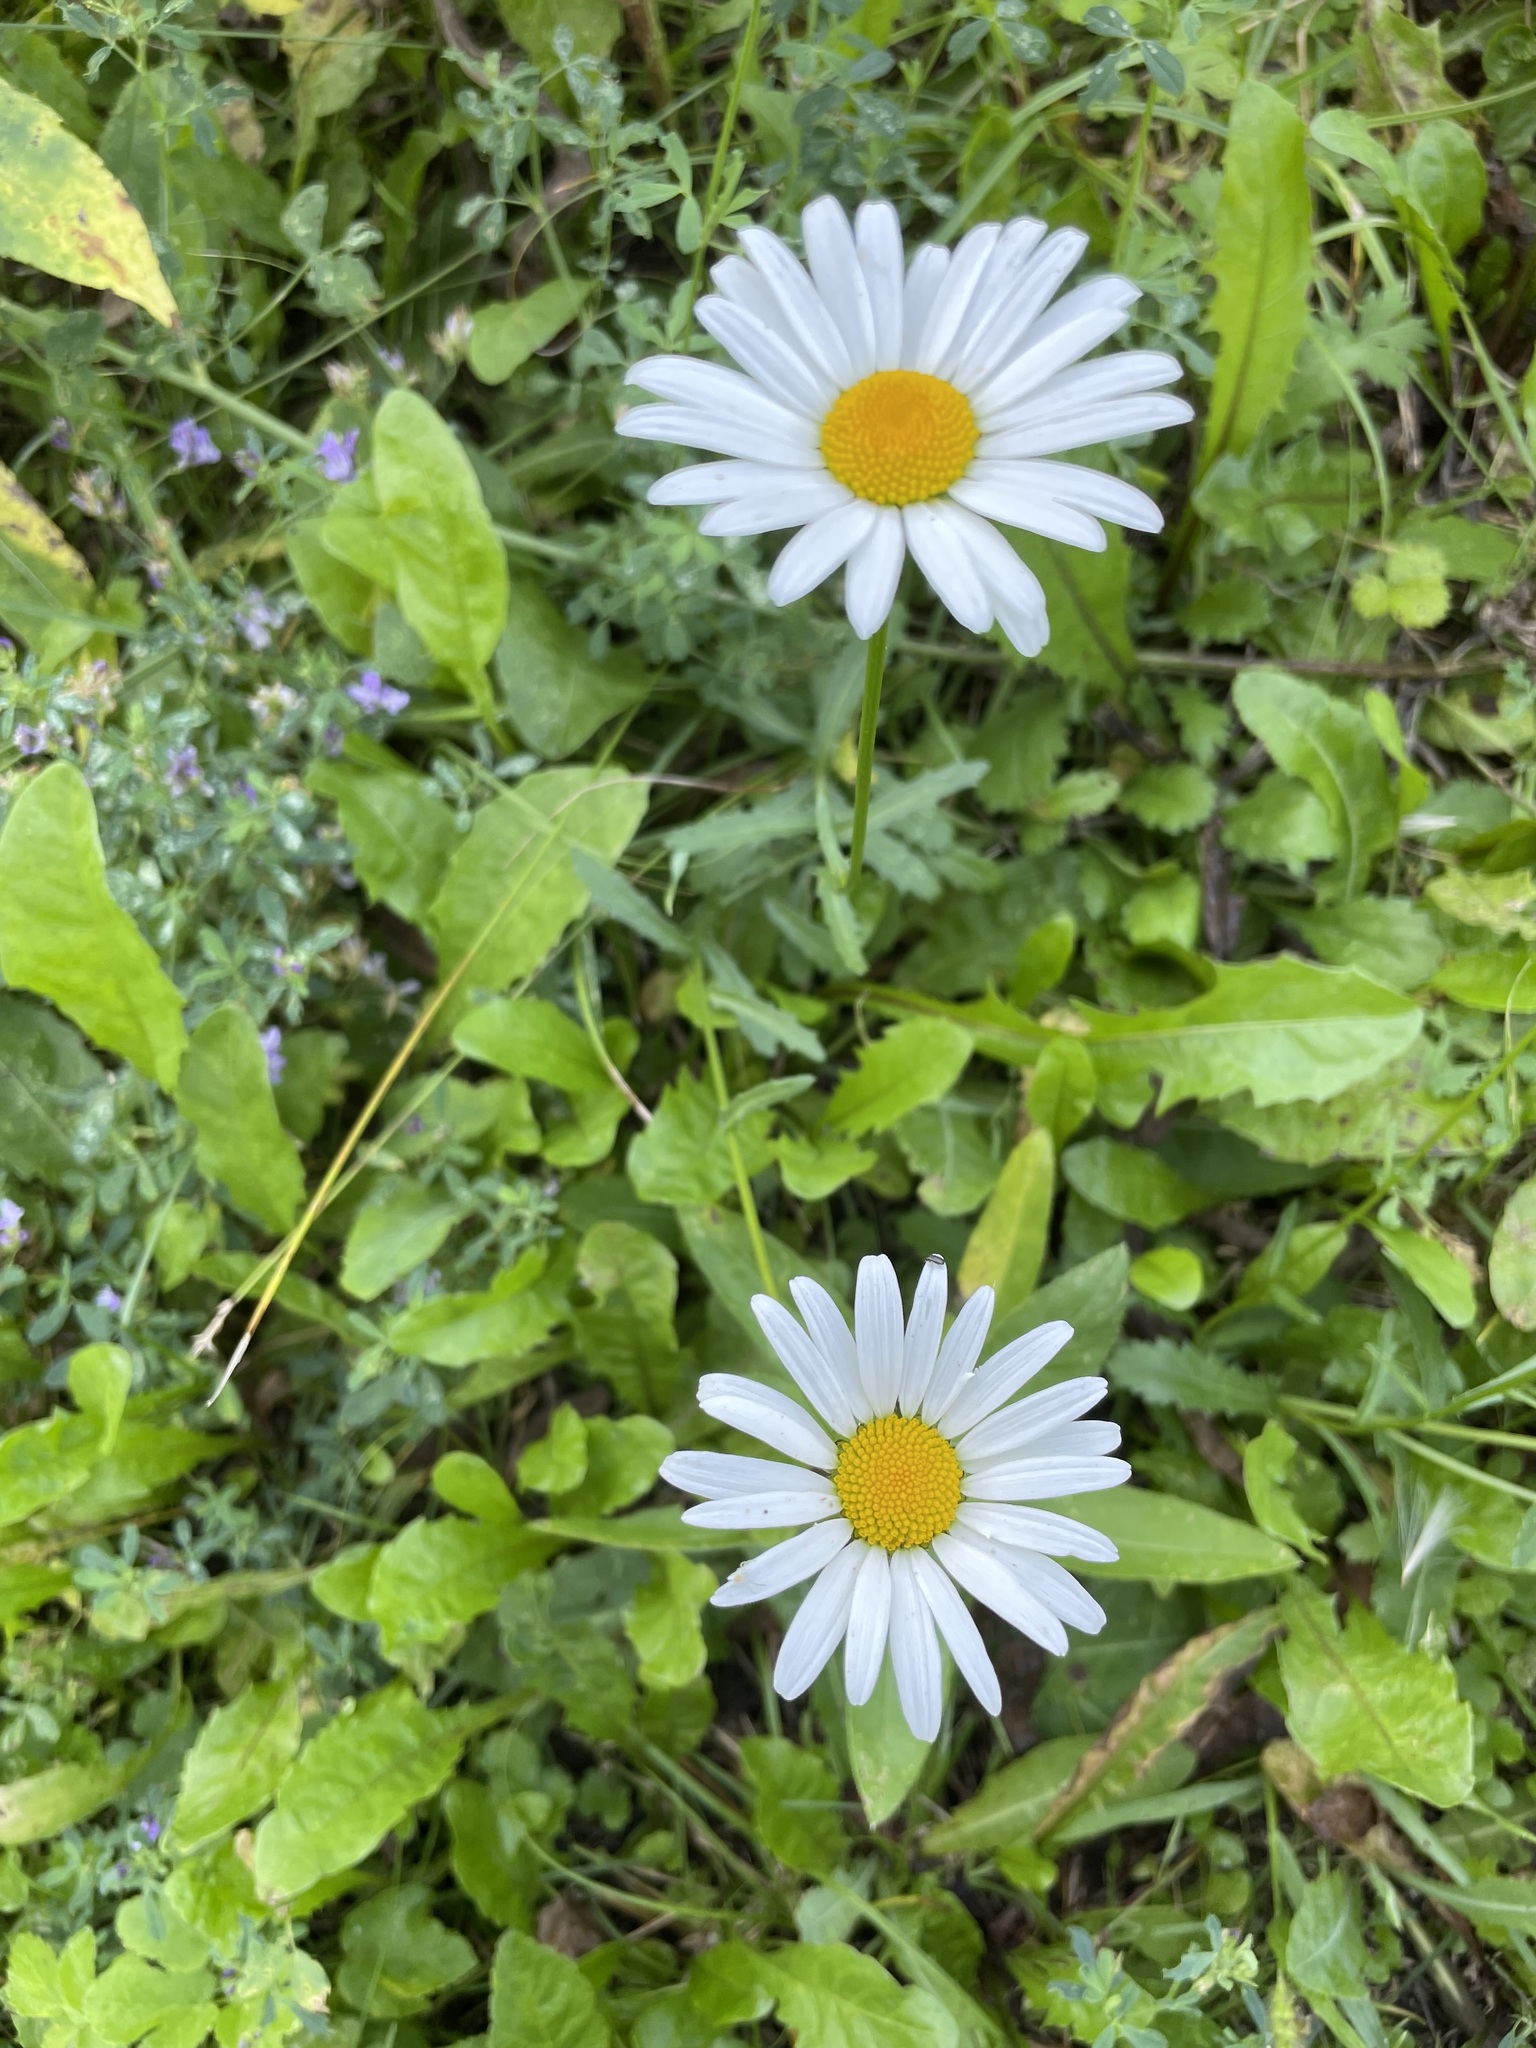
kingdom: Plantae
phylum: Tracheophyta
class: Magnoliopsida
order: Asterales
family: Asteraceae
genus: Leucanthemum
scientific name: Leucanthemum vulgare
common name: Oxeye daisy
